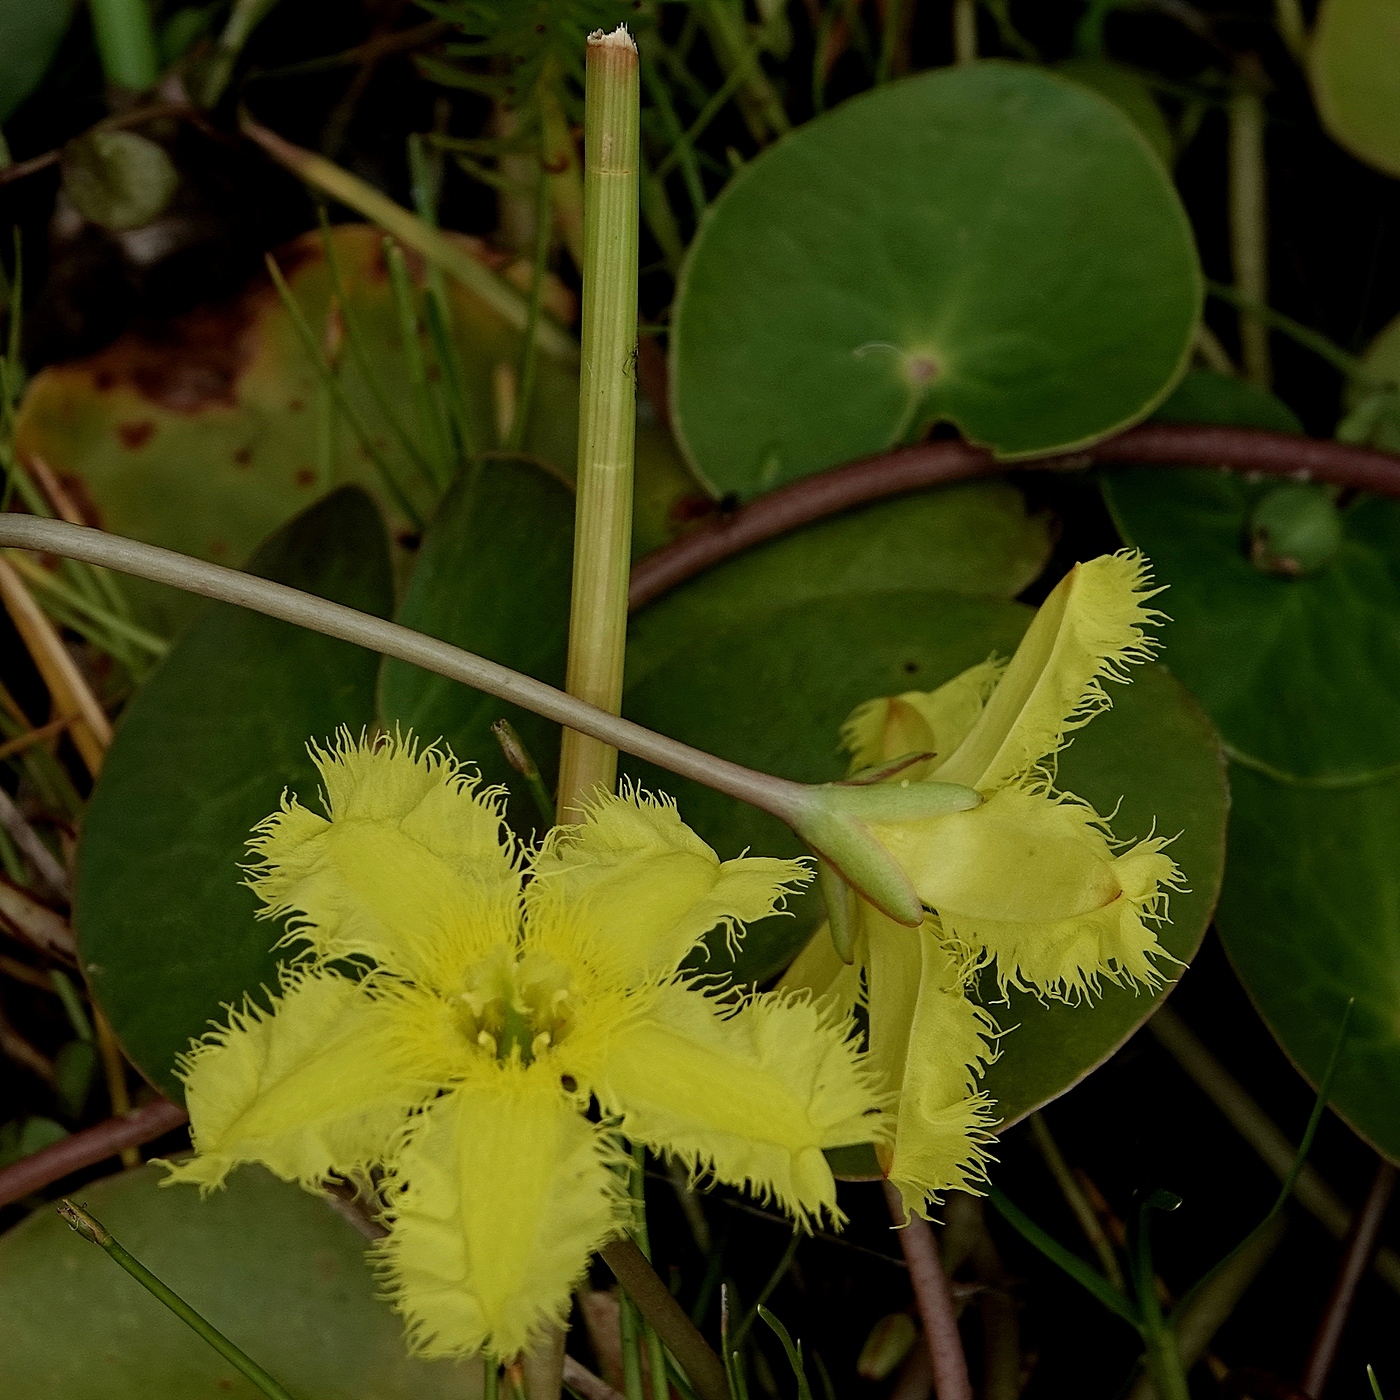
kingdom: Plantae
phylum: Tracheophyta
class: Magnoliopsida
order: Asterales
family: Menyanthaceae
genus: Nymphoides
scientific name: Nymphoides montana
